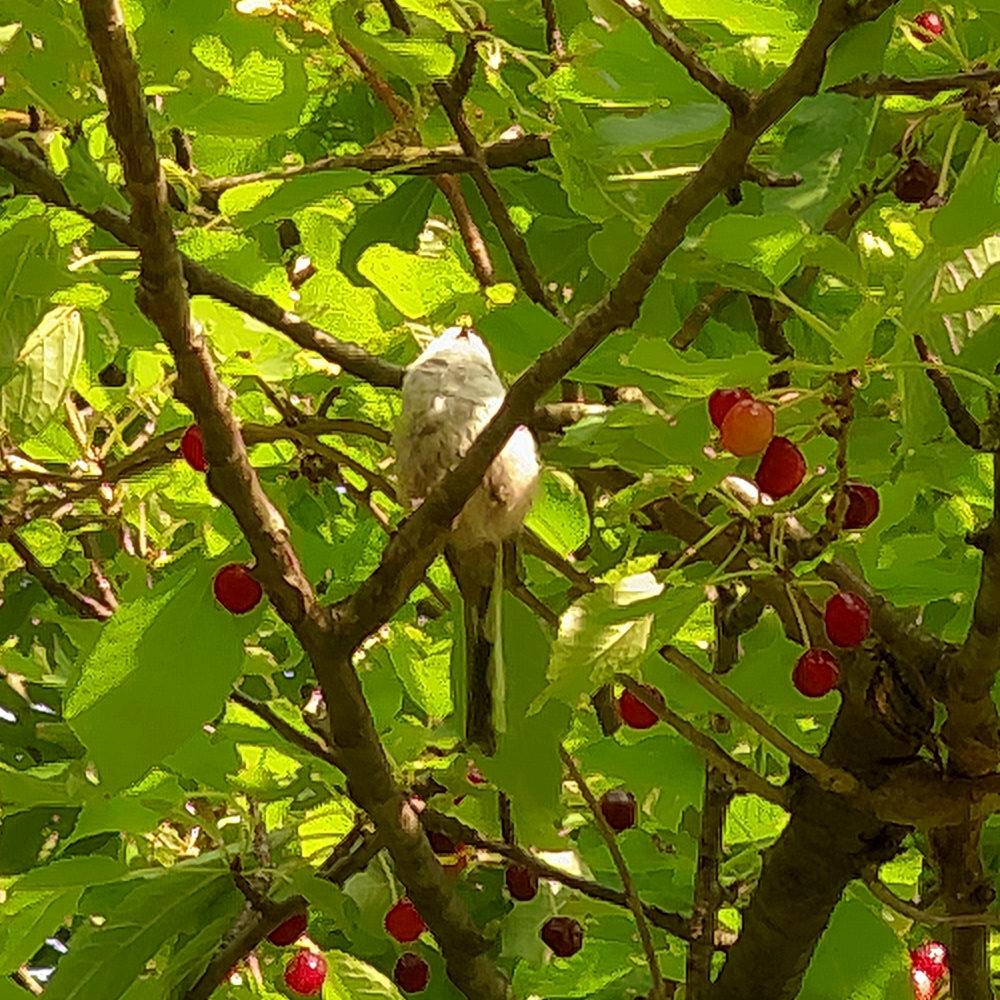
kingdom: Animalia
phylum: Chordata
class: Aves
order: Passeriformes
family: Aegithalidae
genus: Aegithalos
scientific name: Aegithalos caudatus
